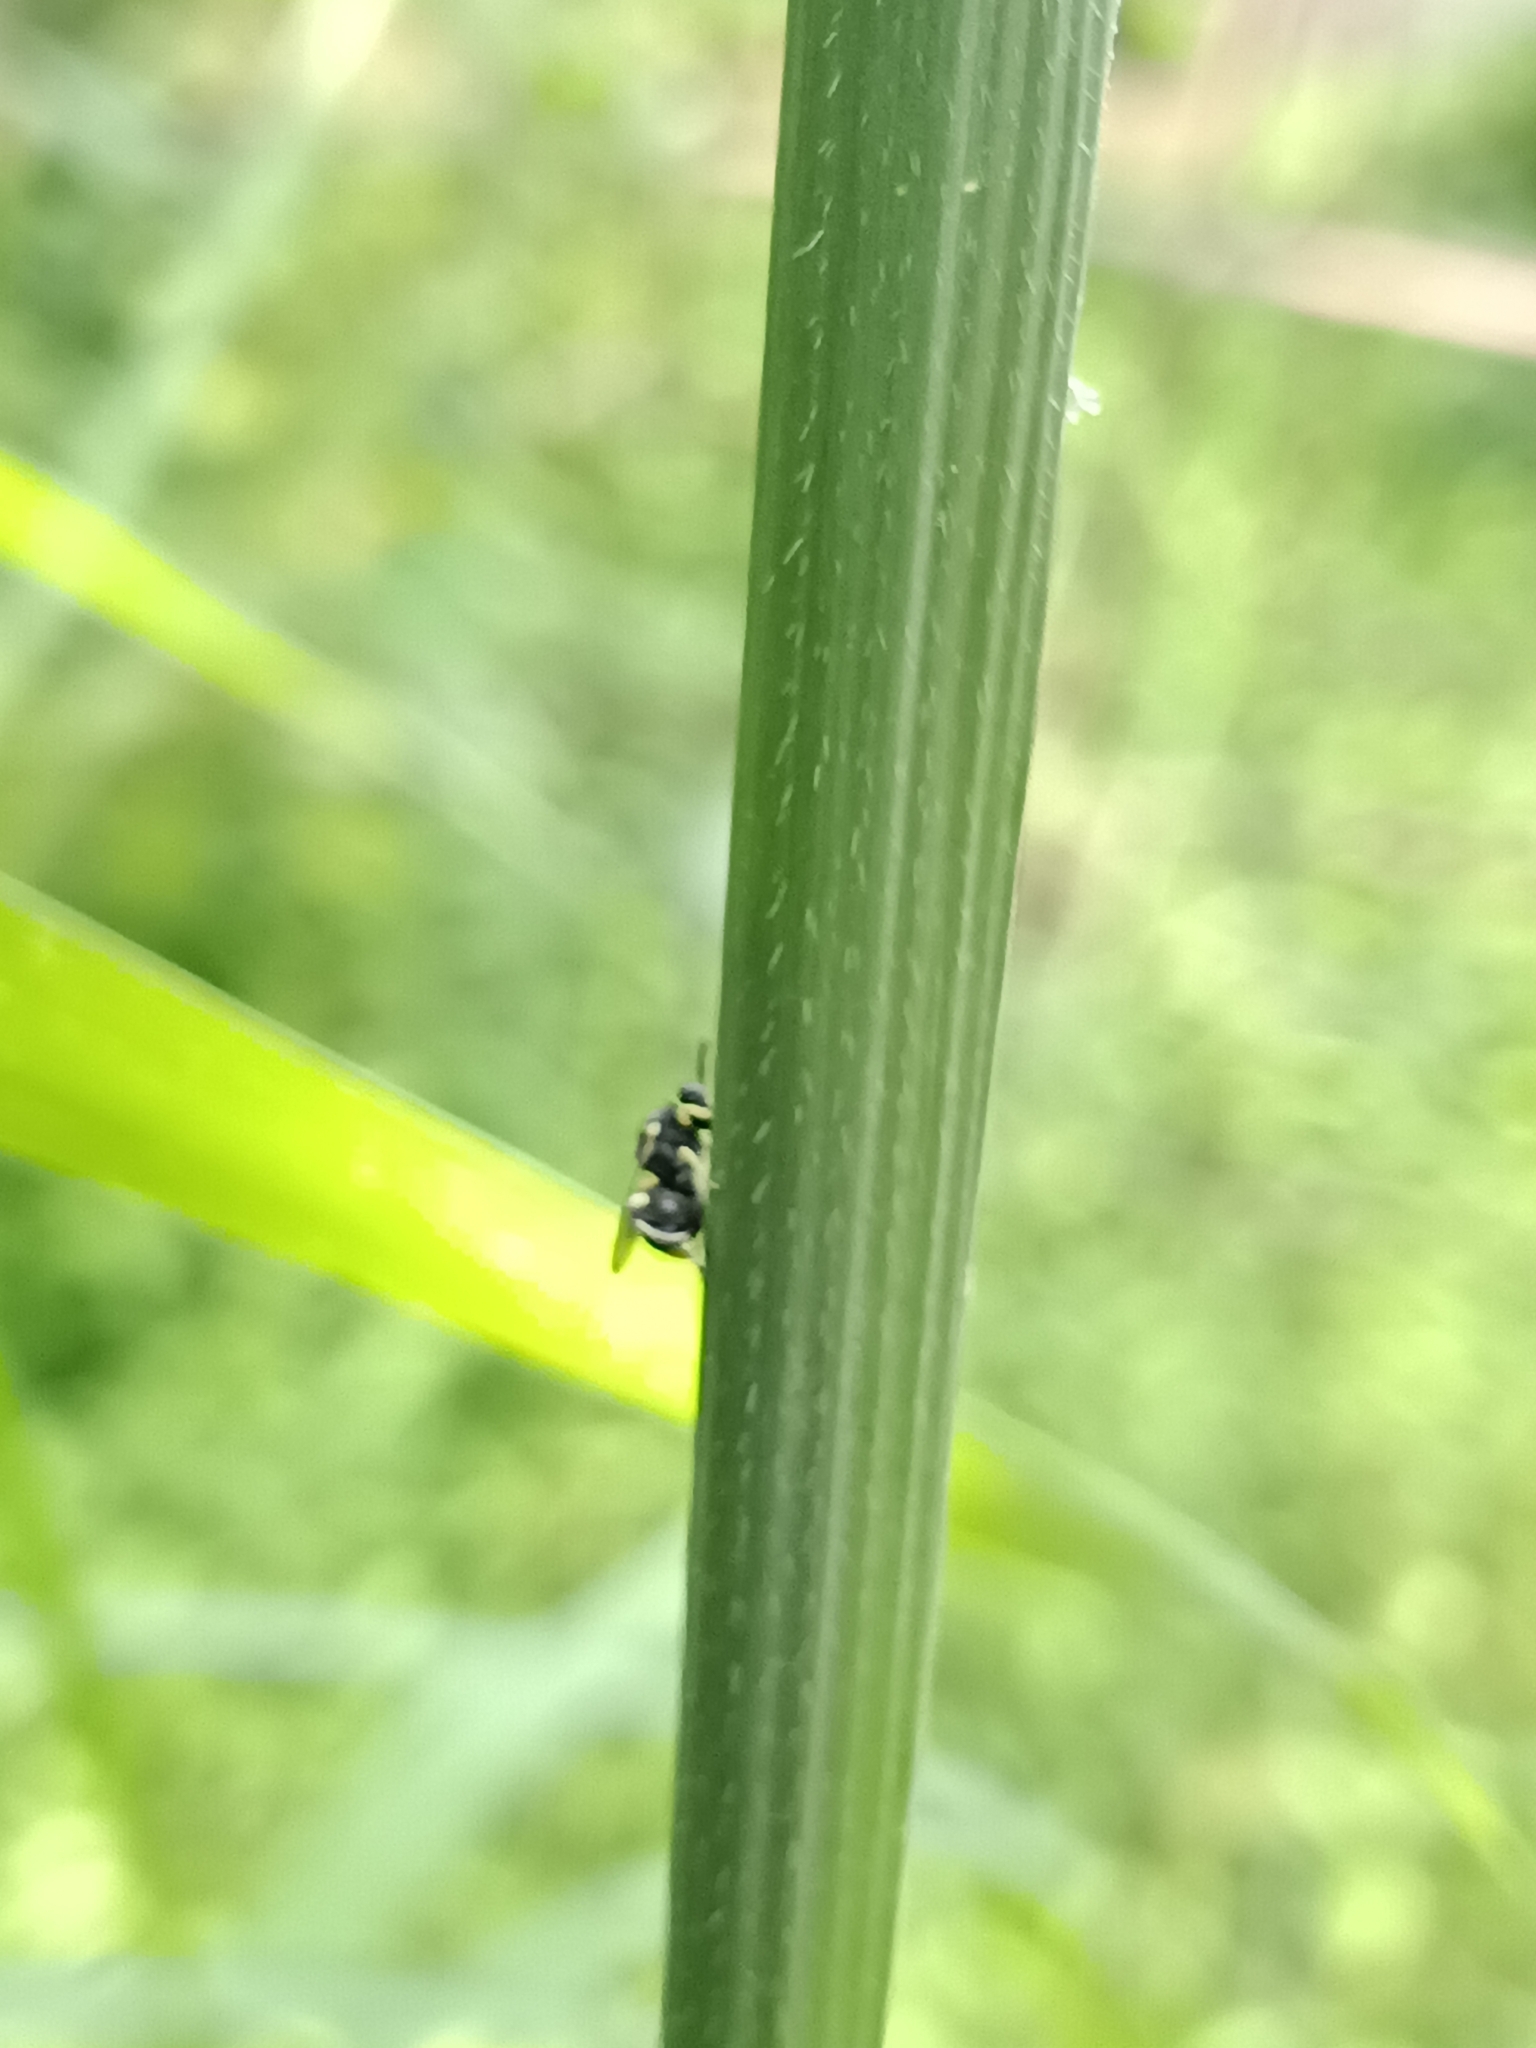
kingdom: Animalia
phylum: Arthropoda
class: Insecta
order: Hymenoptera
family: Chalcididae
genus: Brachymeria
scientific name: Brachymeria nephantidis
